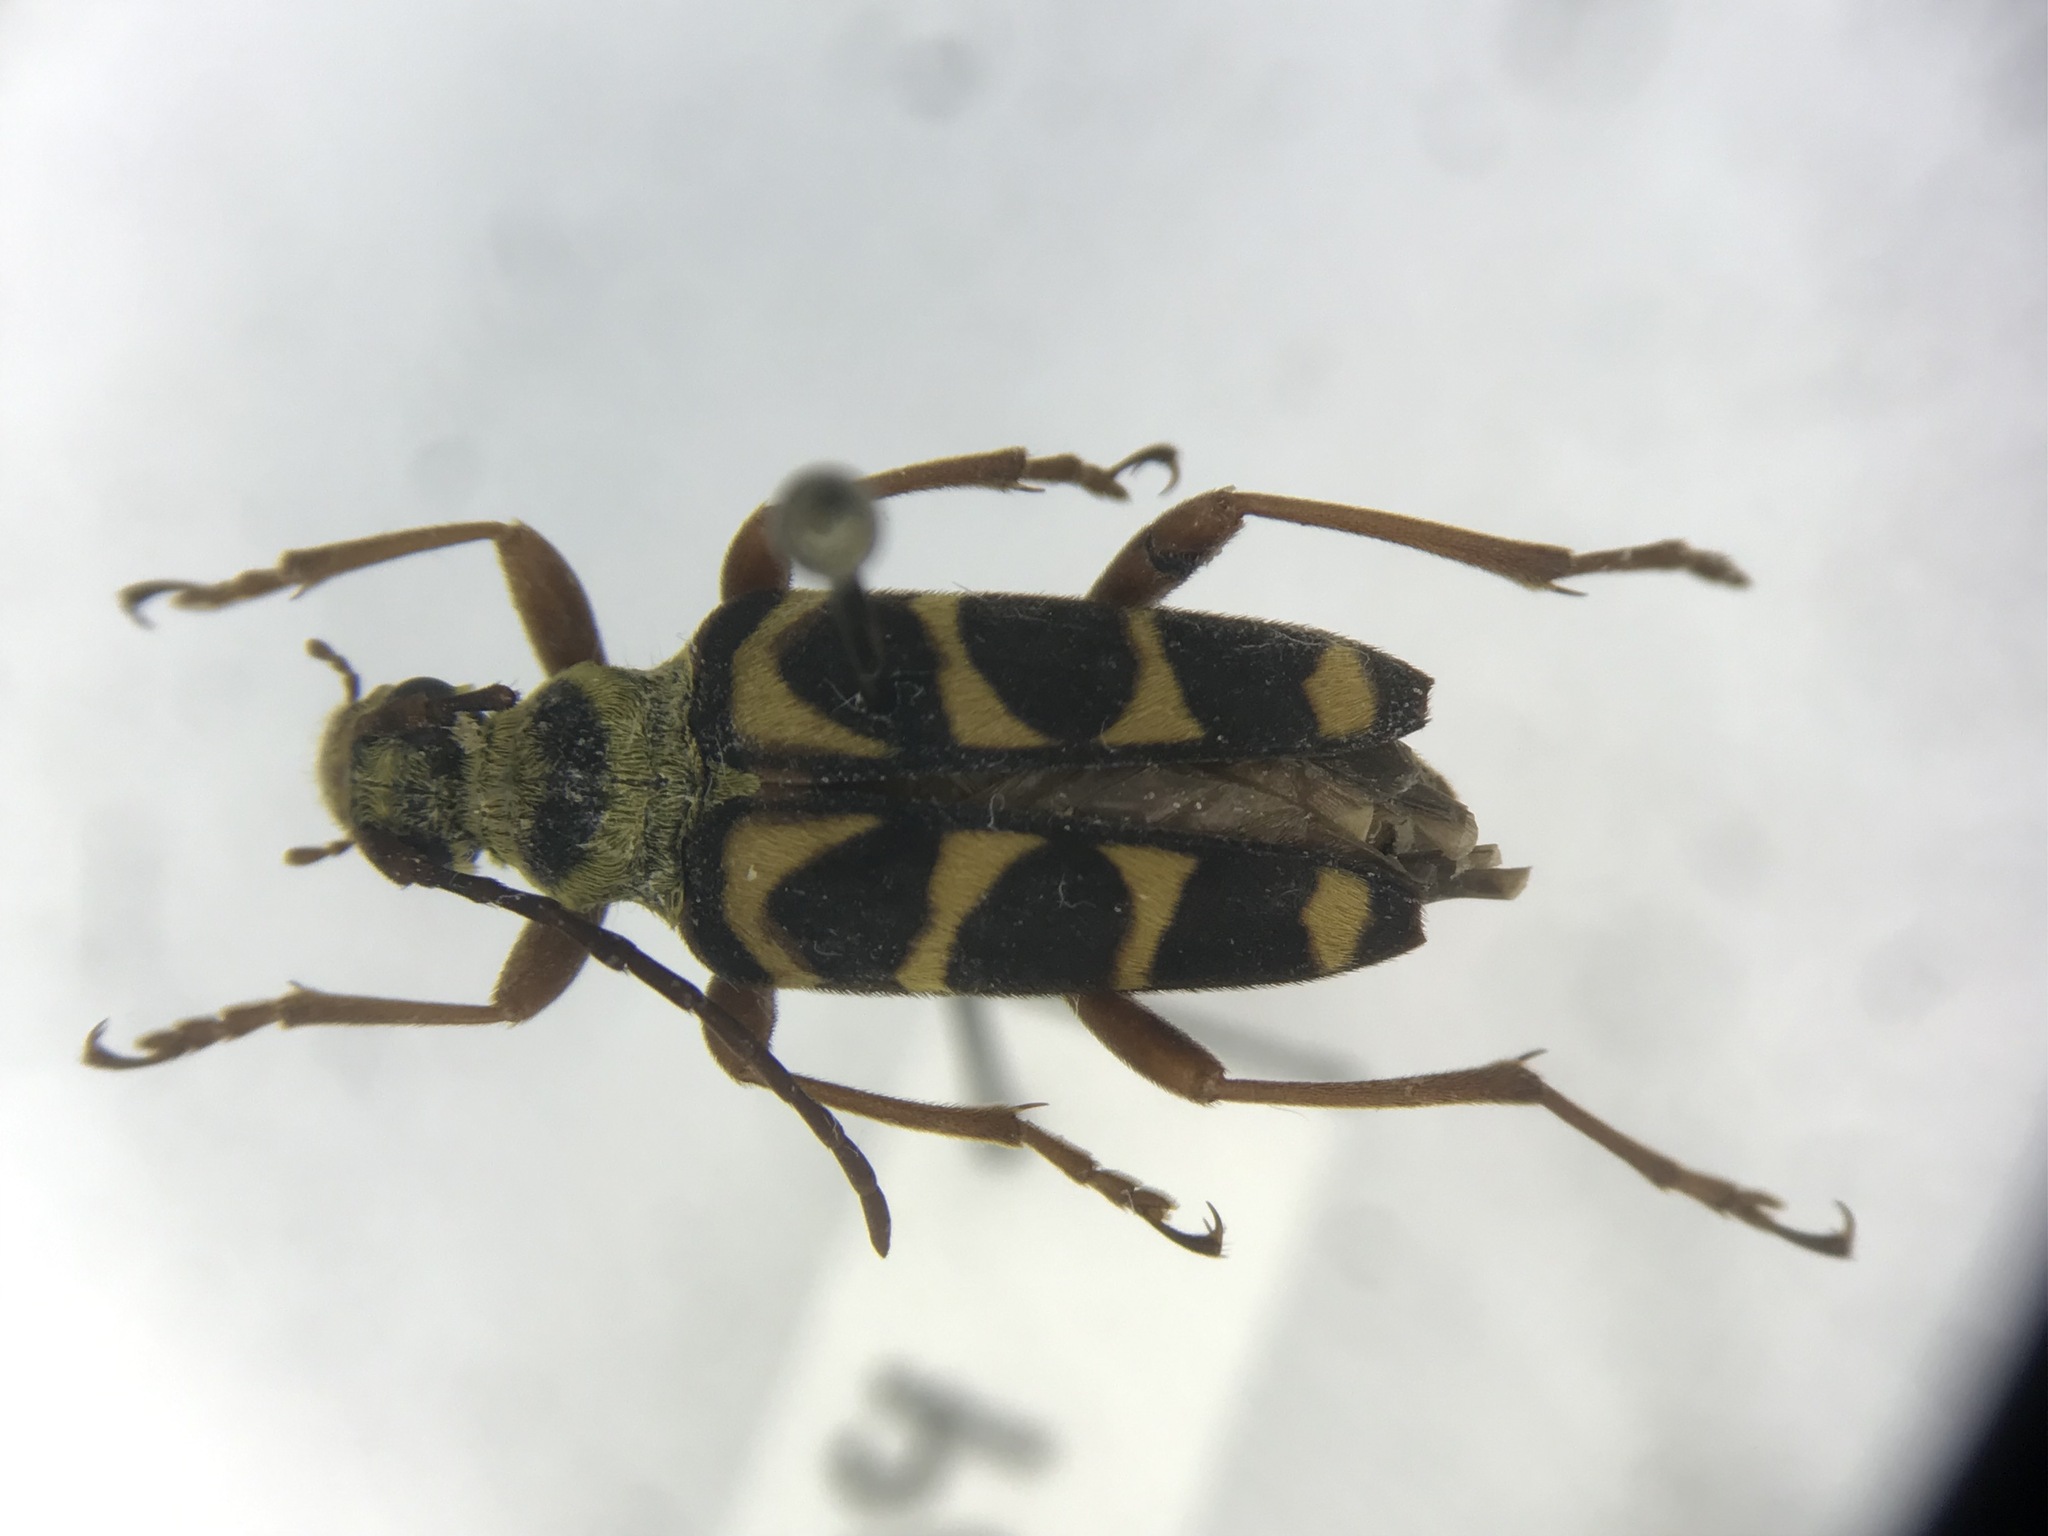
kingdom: Animalia
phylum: Arthropoda
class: Insecta
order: Coleoptera
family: Cerambycidae
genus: Strophiona
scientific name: Strophiona nitens
